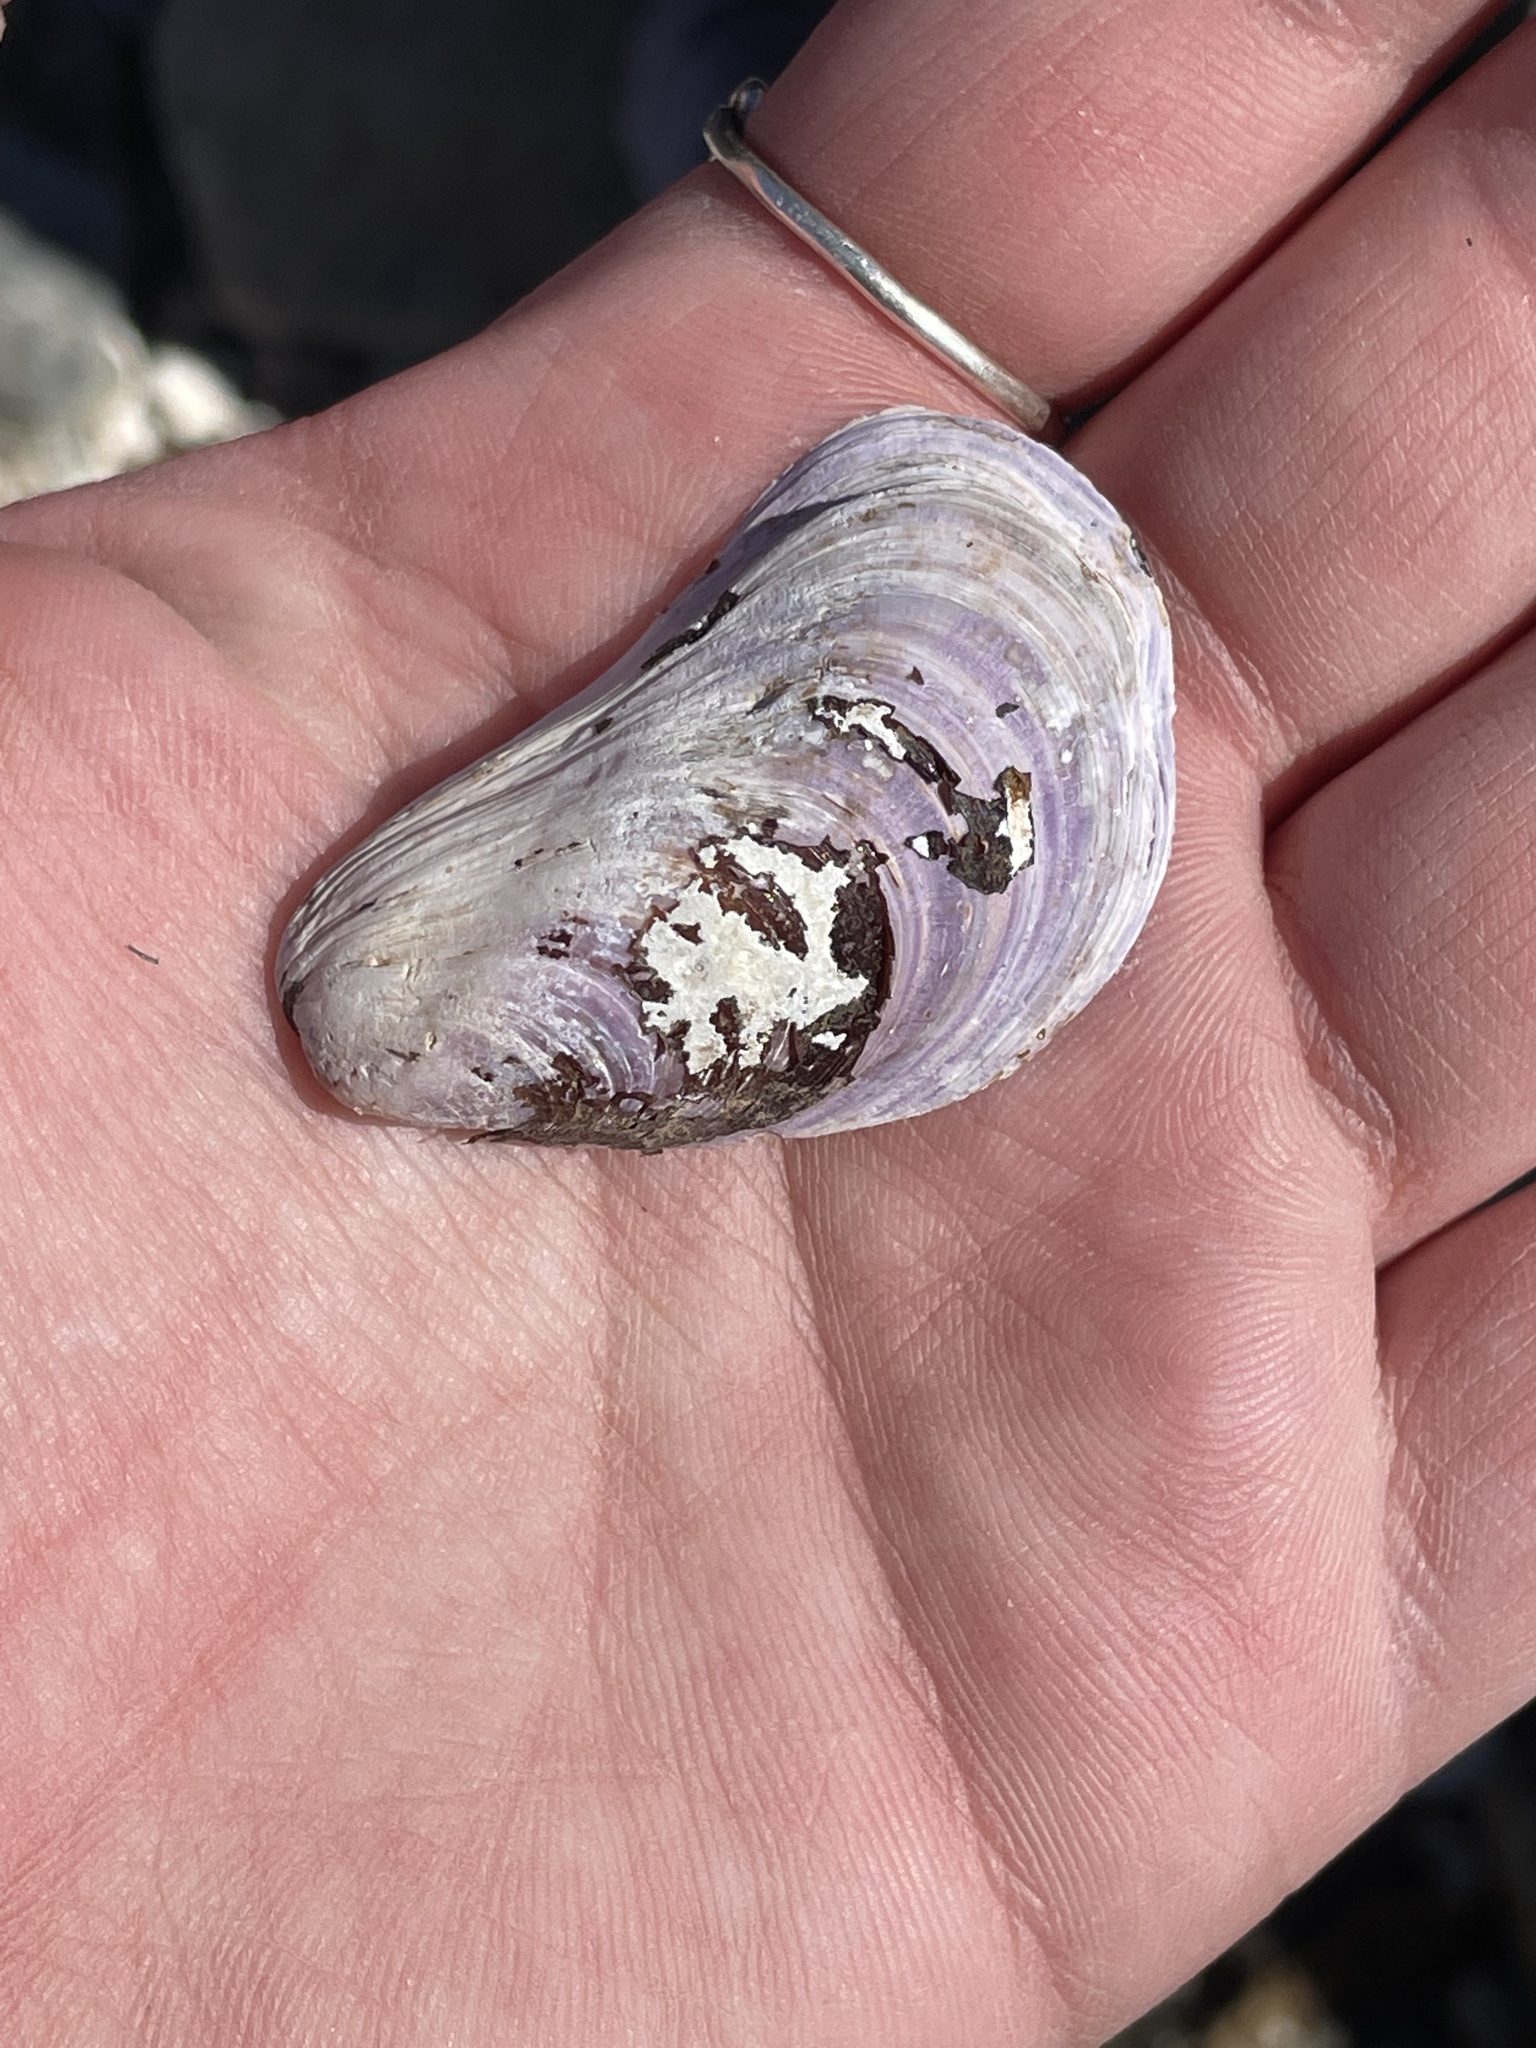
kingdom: Animalia
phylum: Mollusca
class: Bivalvia
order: Mytilida
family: Mytilidae
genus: Modiolus
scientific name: Modiolus modiolus
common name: Horse-mussel
